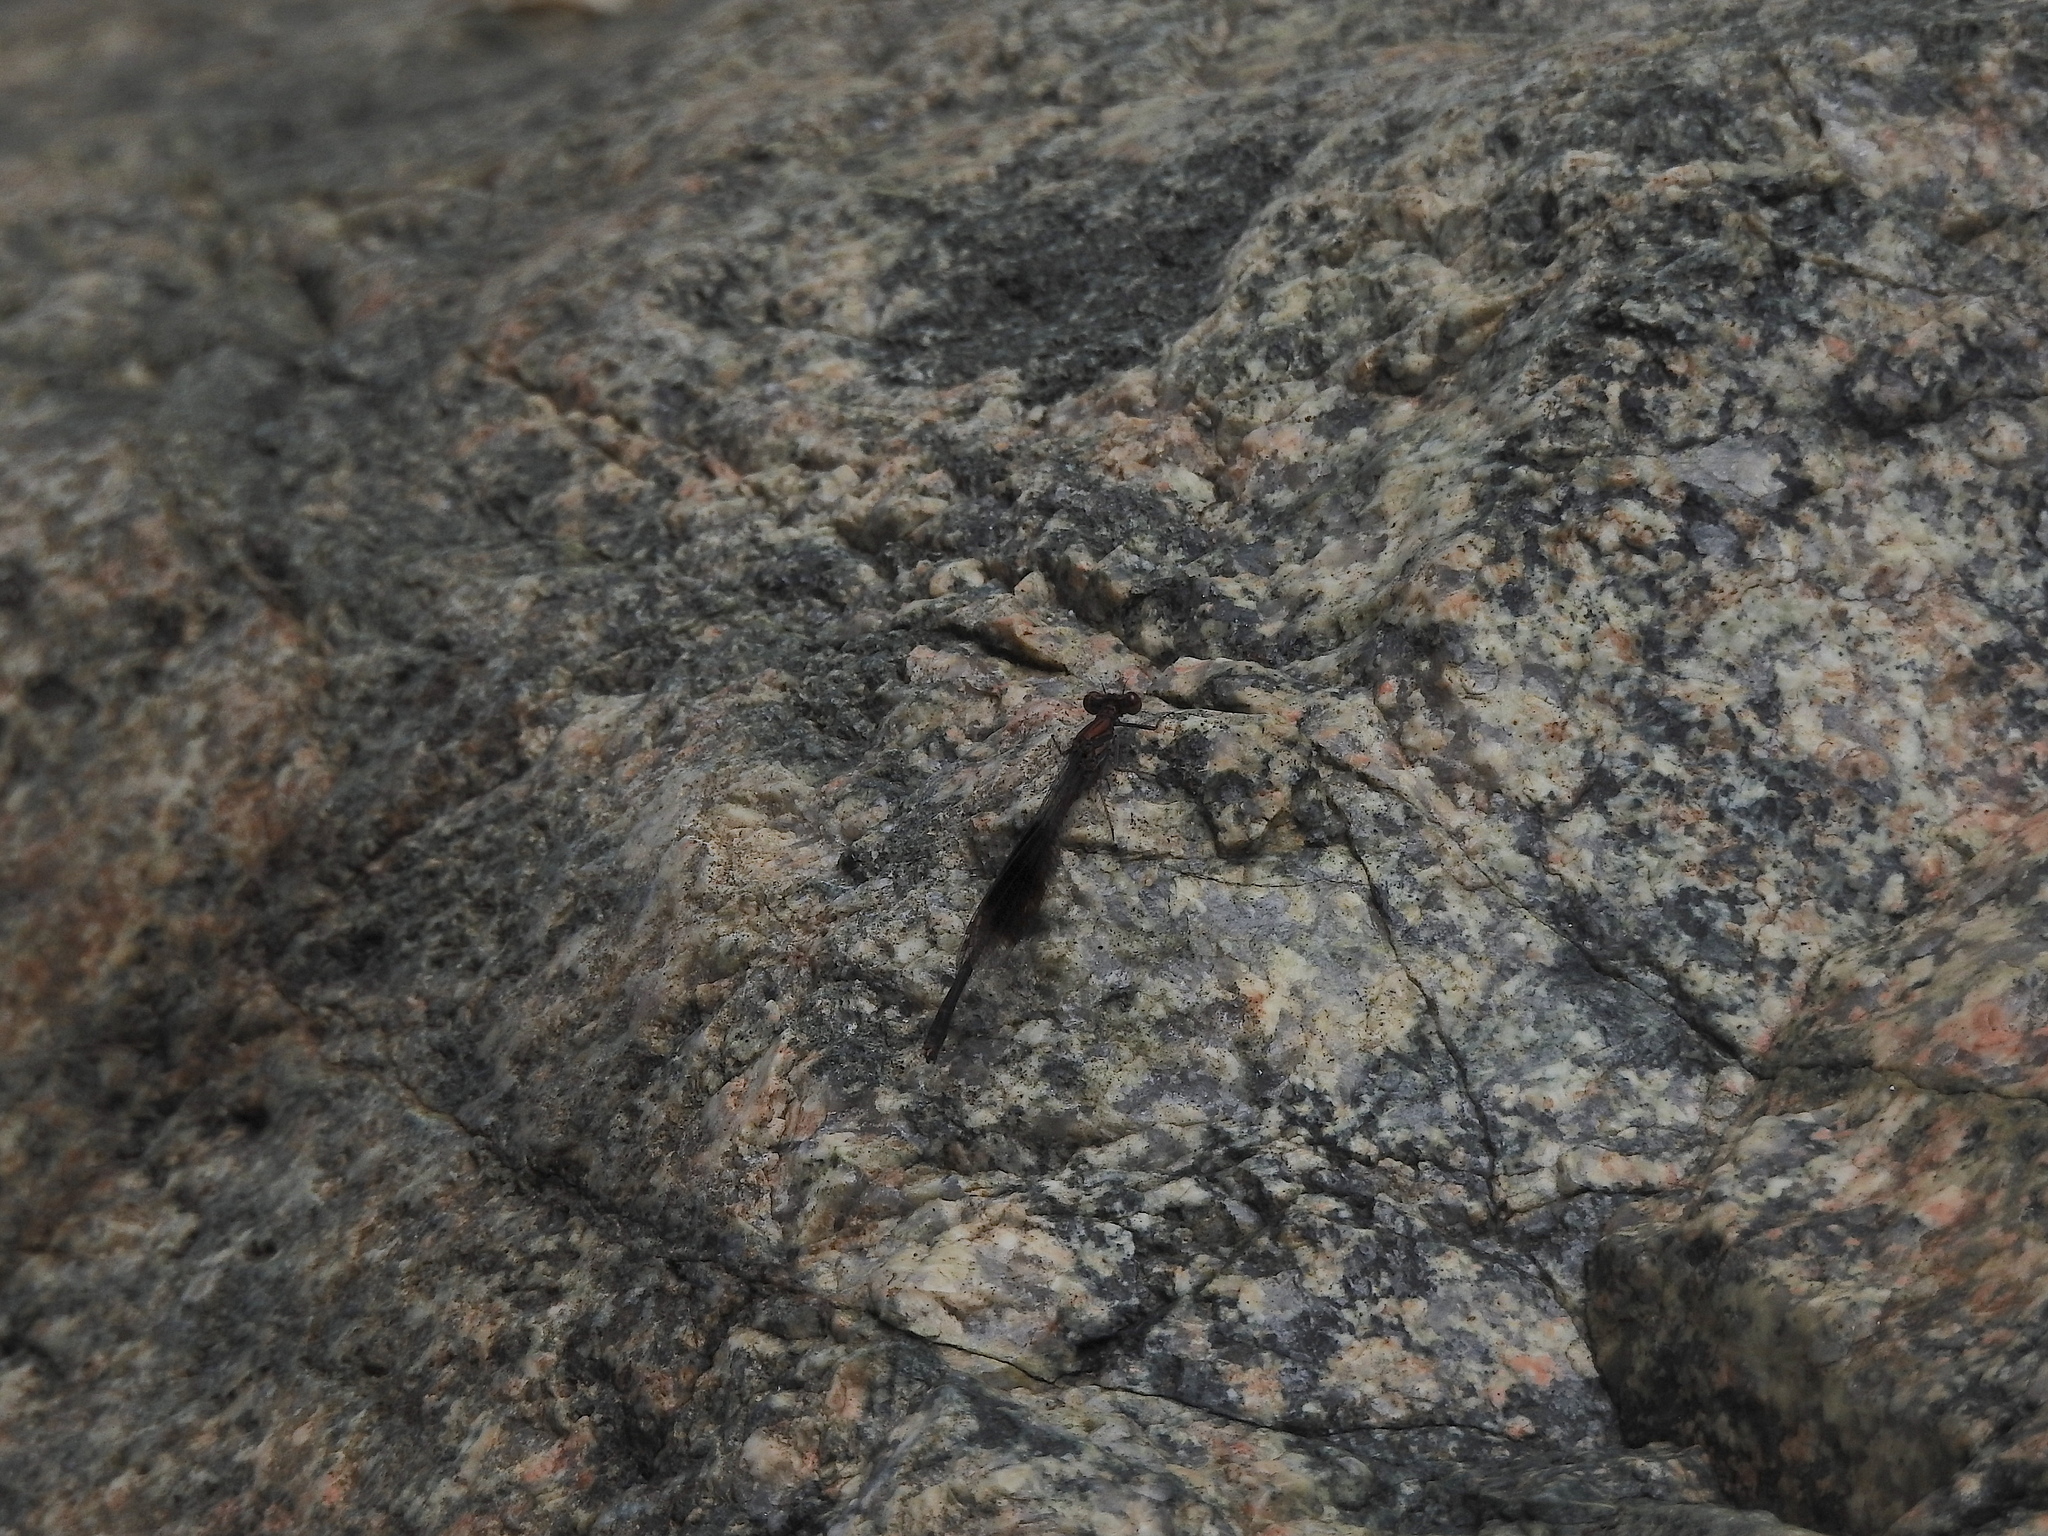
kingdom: Animalia
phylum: Arthropoda
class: Insecta
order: Odonata
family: Platycnemididae
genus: Disparoneura
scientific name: Disparoneura quadrimaculata
